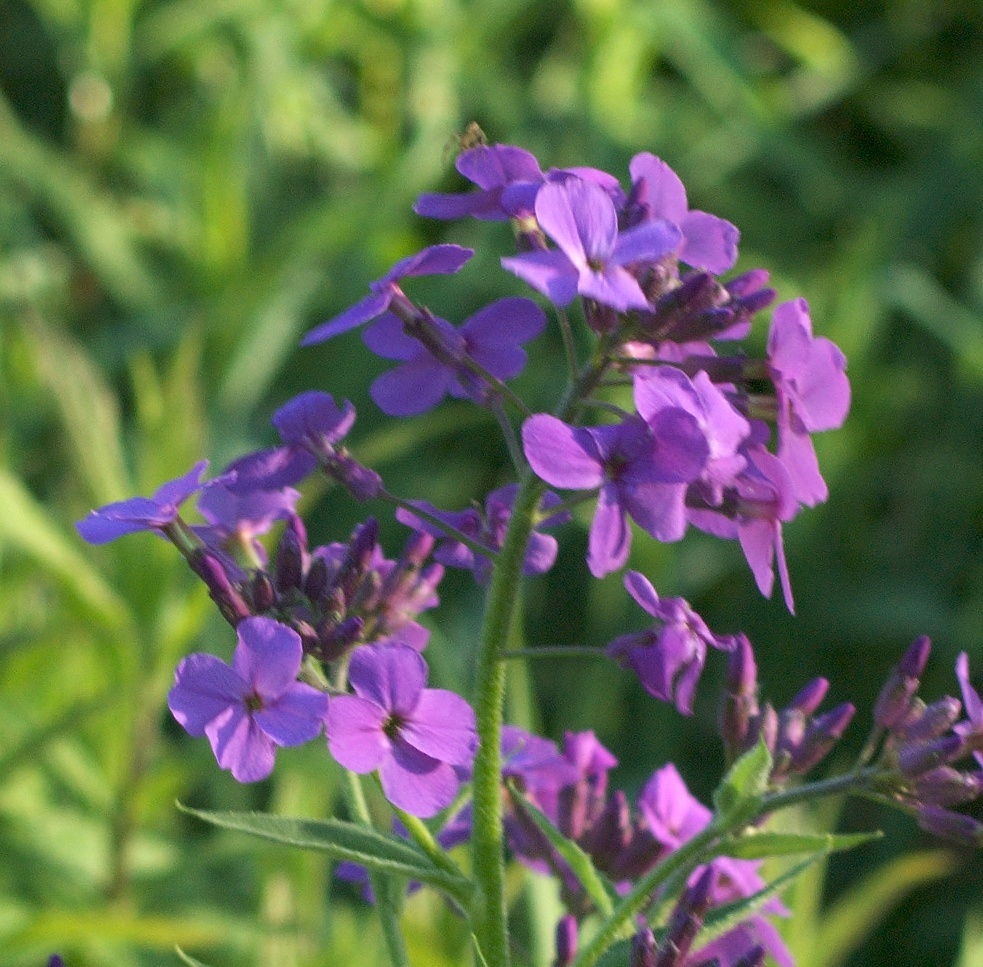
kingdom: Plantae
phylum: Tracheophyta
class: Magnoliopsida
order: Brassicales
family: Brassicaceae
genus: Hesperis
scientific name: Hesperis matronalis
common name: Dame's-violet
